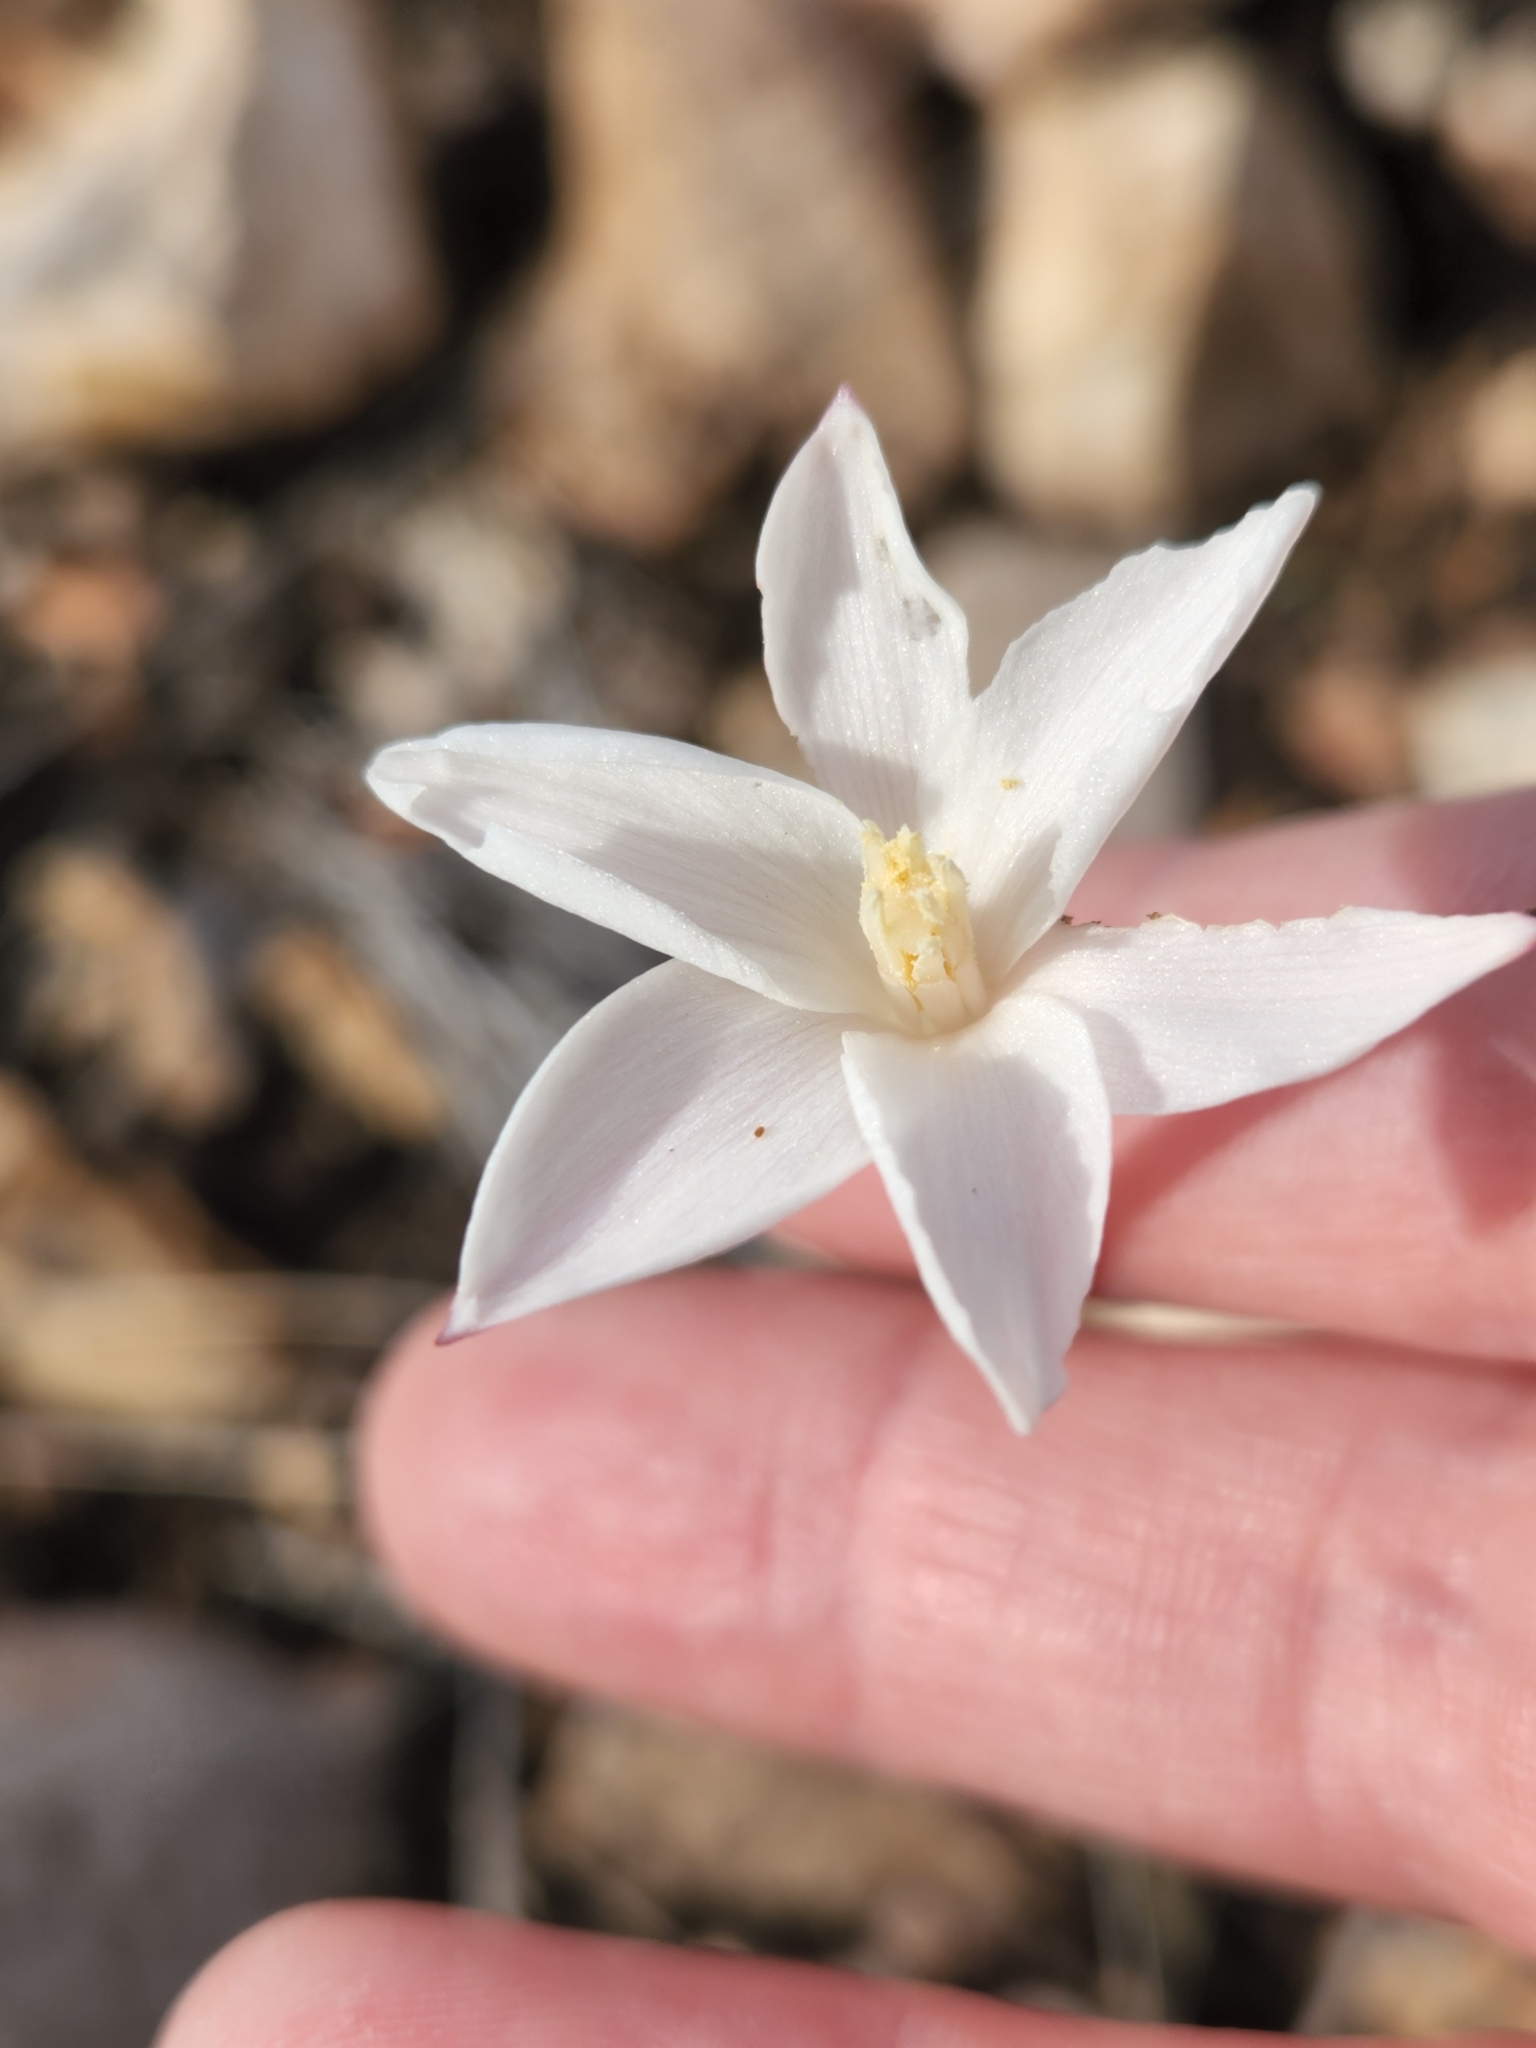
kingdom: Plantae
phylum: Tracheophyta
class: Liliopsida
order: Asparagales
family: Amaryllidaceae
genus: Zephyranthes
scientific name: Zephyranthes chlorosolen
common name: Evening rain-lily
